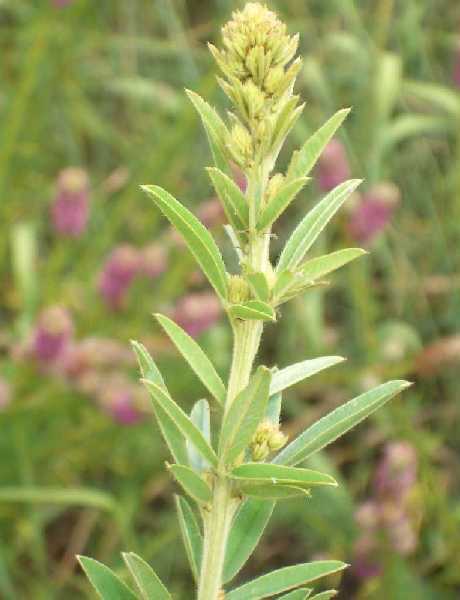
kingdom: Plantae
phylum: Tracheophyta
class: Magnoliopsida
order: Fabales
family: Fabaceae
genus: Lespedeza
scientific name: Lespedeza capitata
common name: Dusty clover
